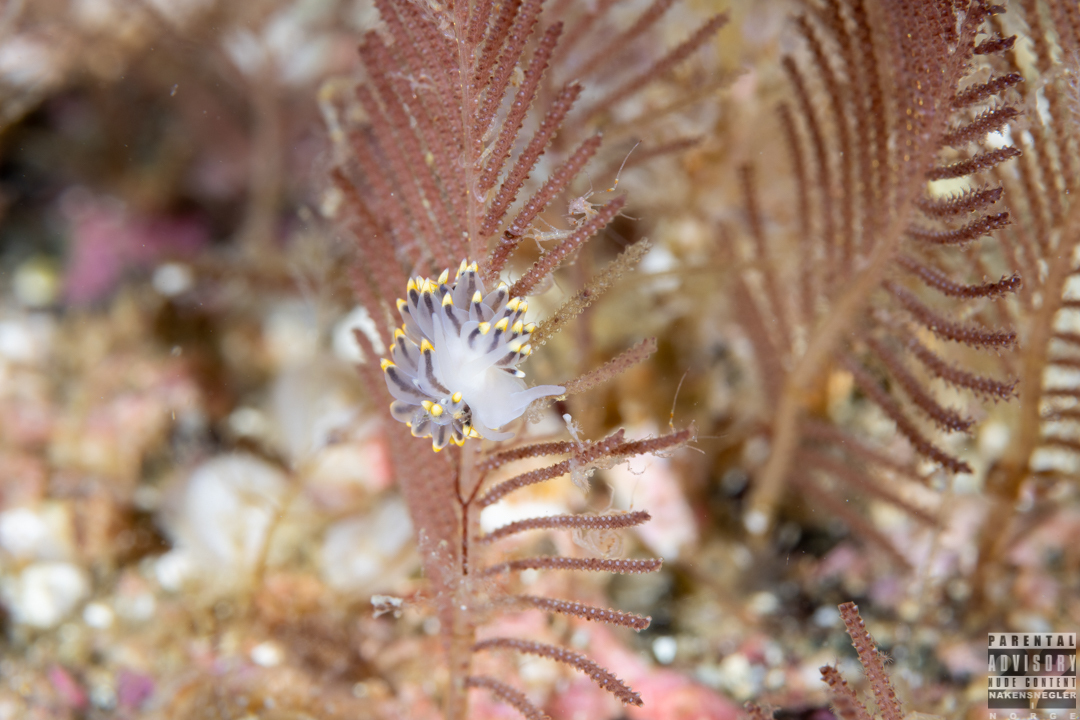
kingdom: Animalia
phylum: Mollusca
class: Gastropoda
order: Nudibranchia
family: Eubranchidae
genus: Eubranchus
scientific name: Eubranchus tricolor
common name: Painted balloon aeolis
